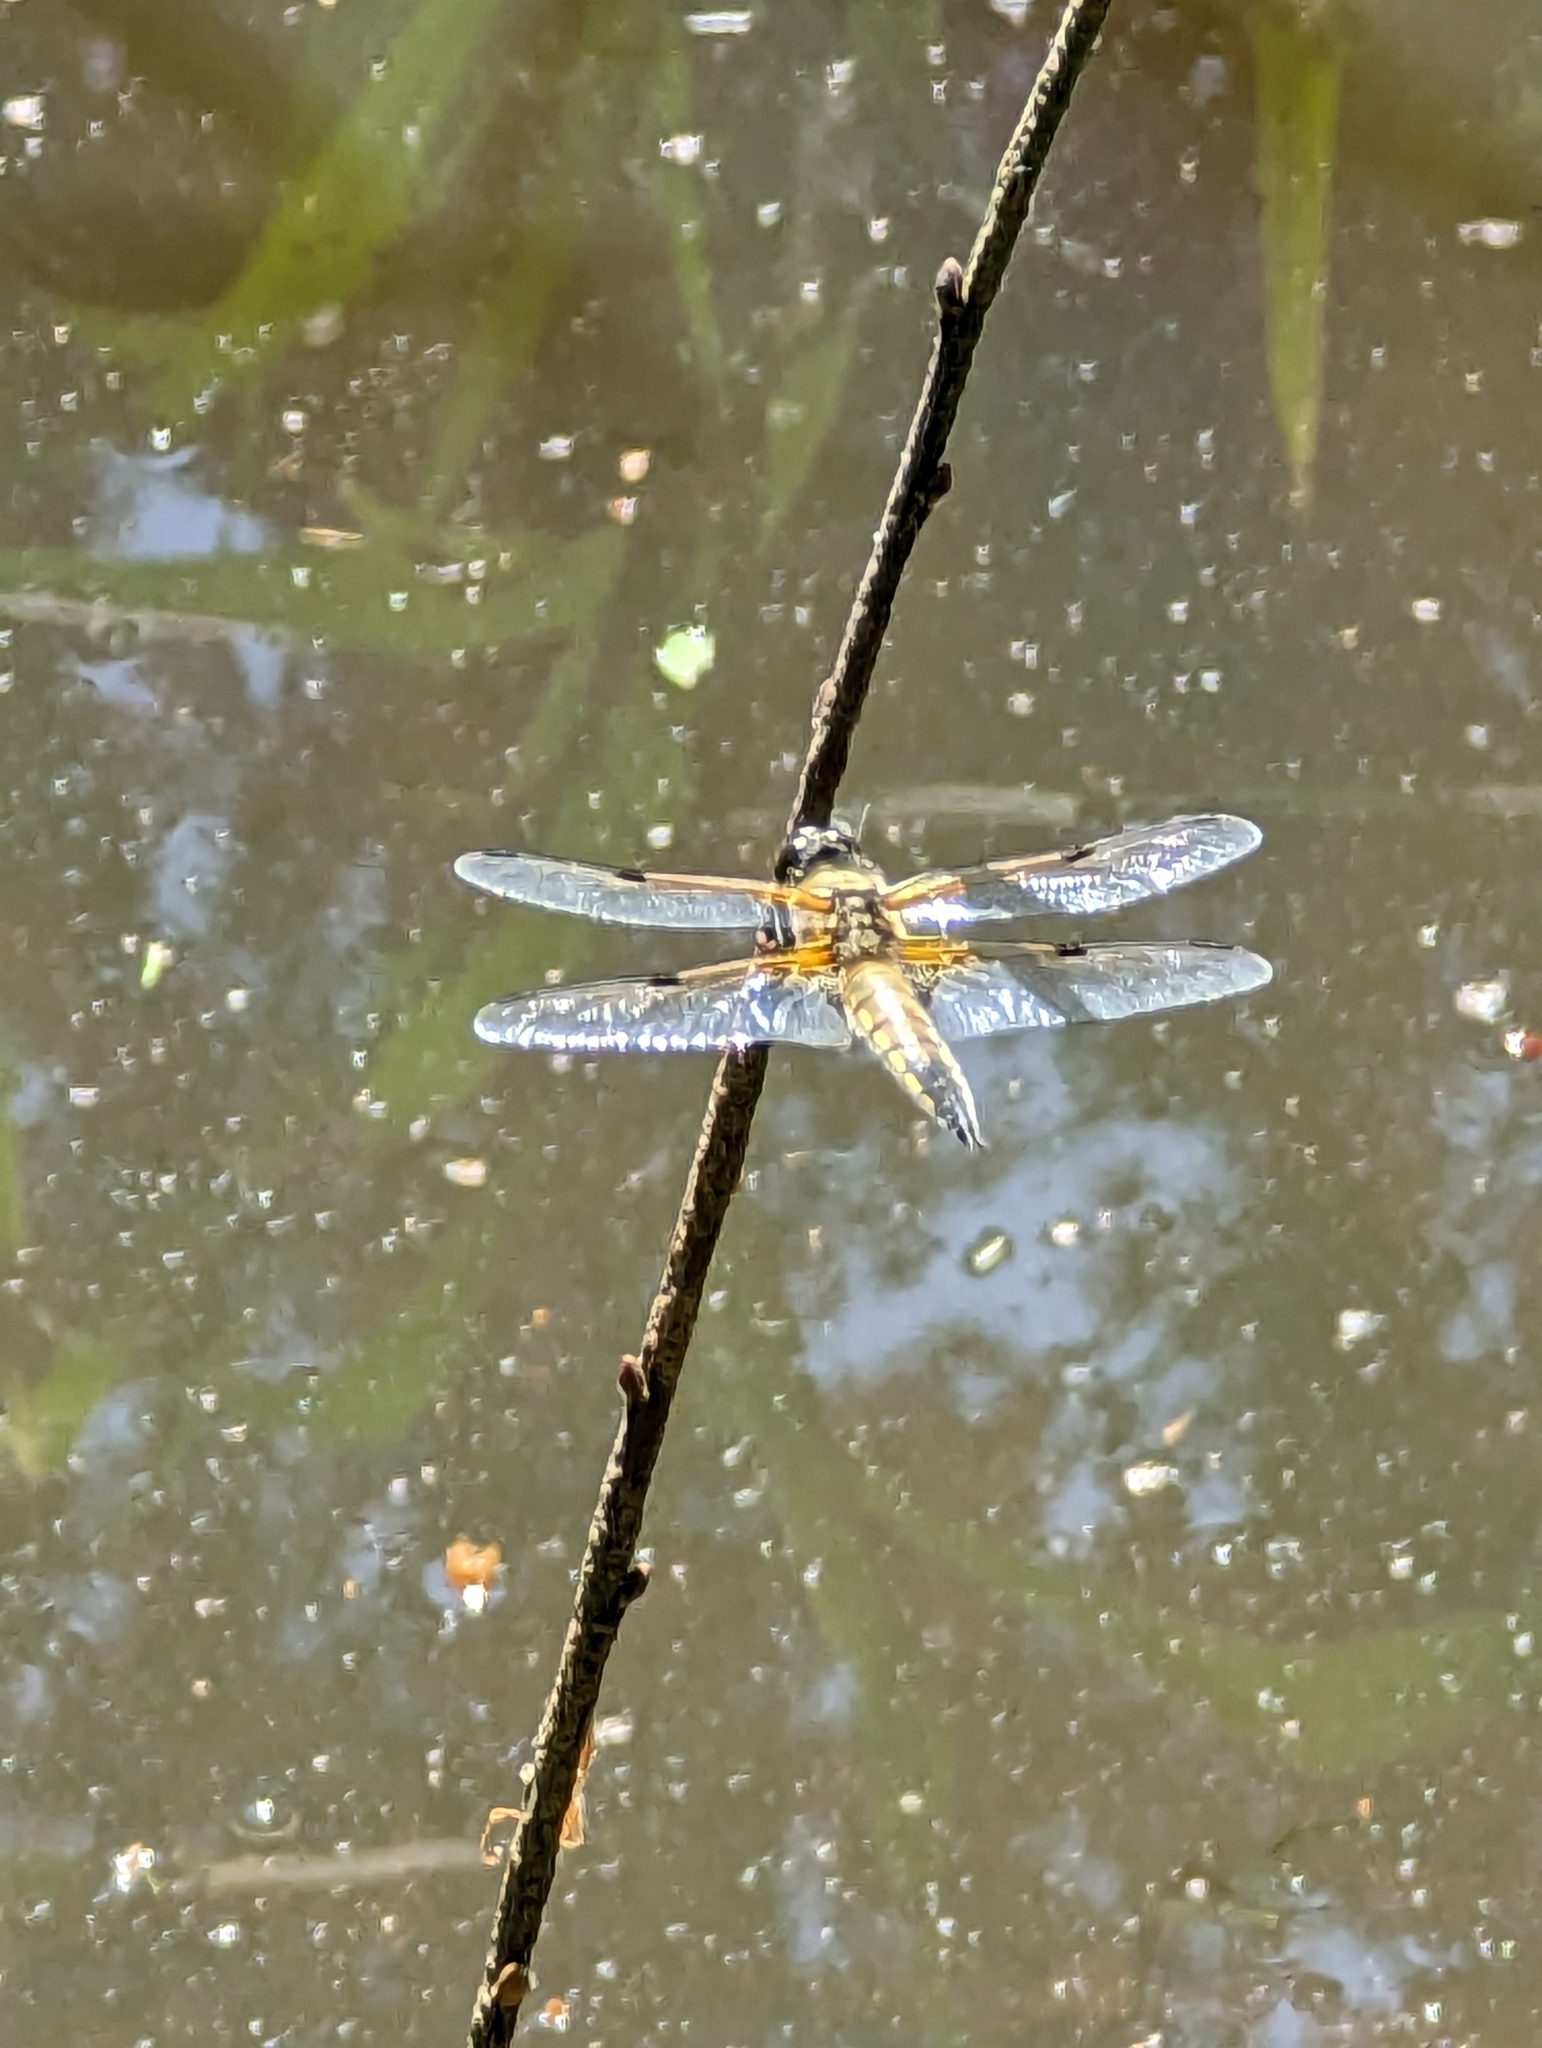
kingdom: Animalia
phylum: Arthropoda
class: Insecta
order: Odonata
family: Libellulidae
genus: Libellula
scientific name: Libellula quadrimaculata
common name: Four-spotted chaser
